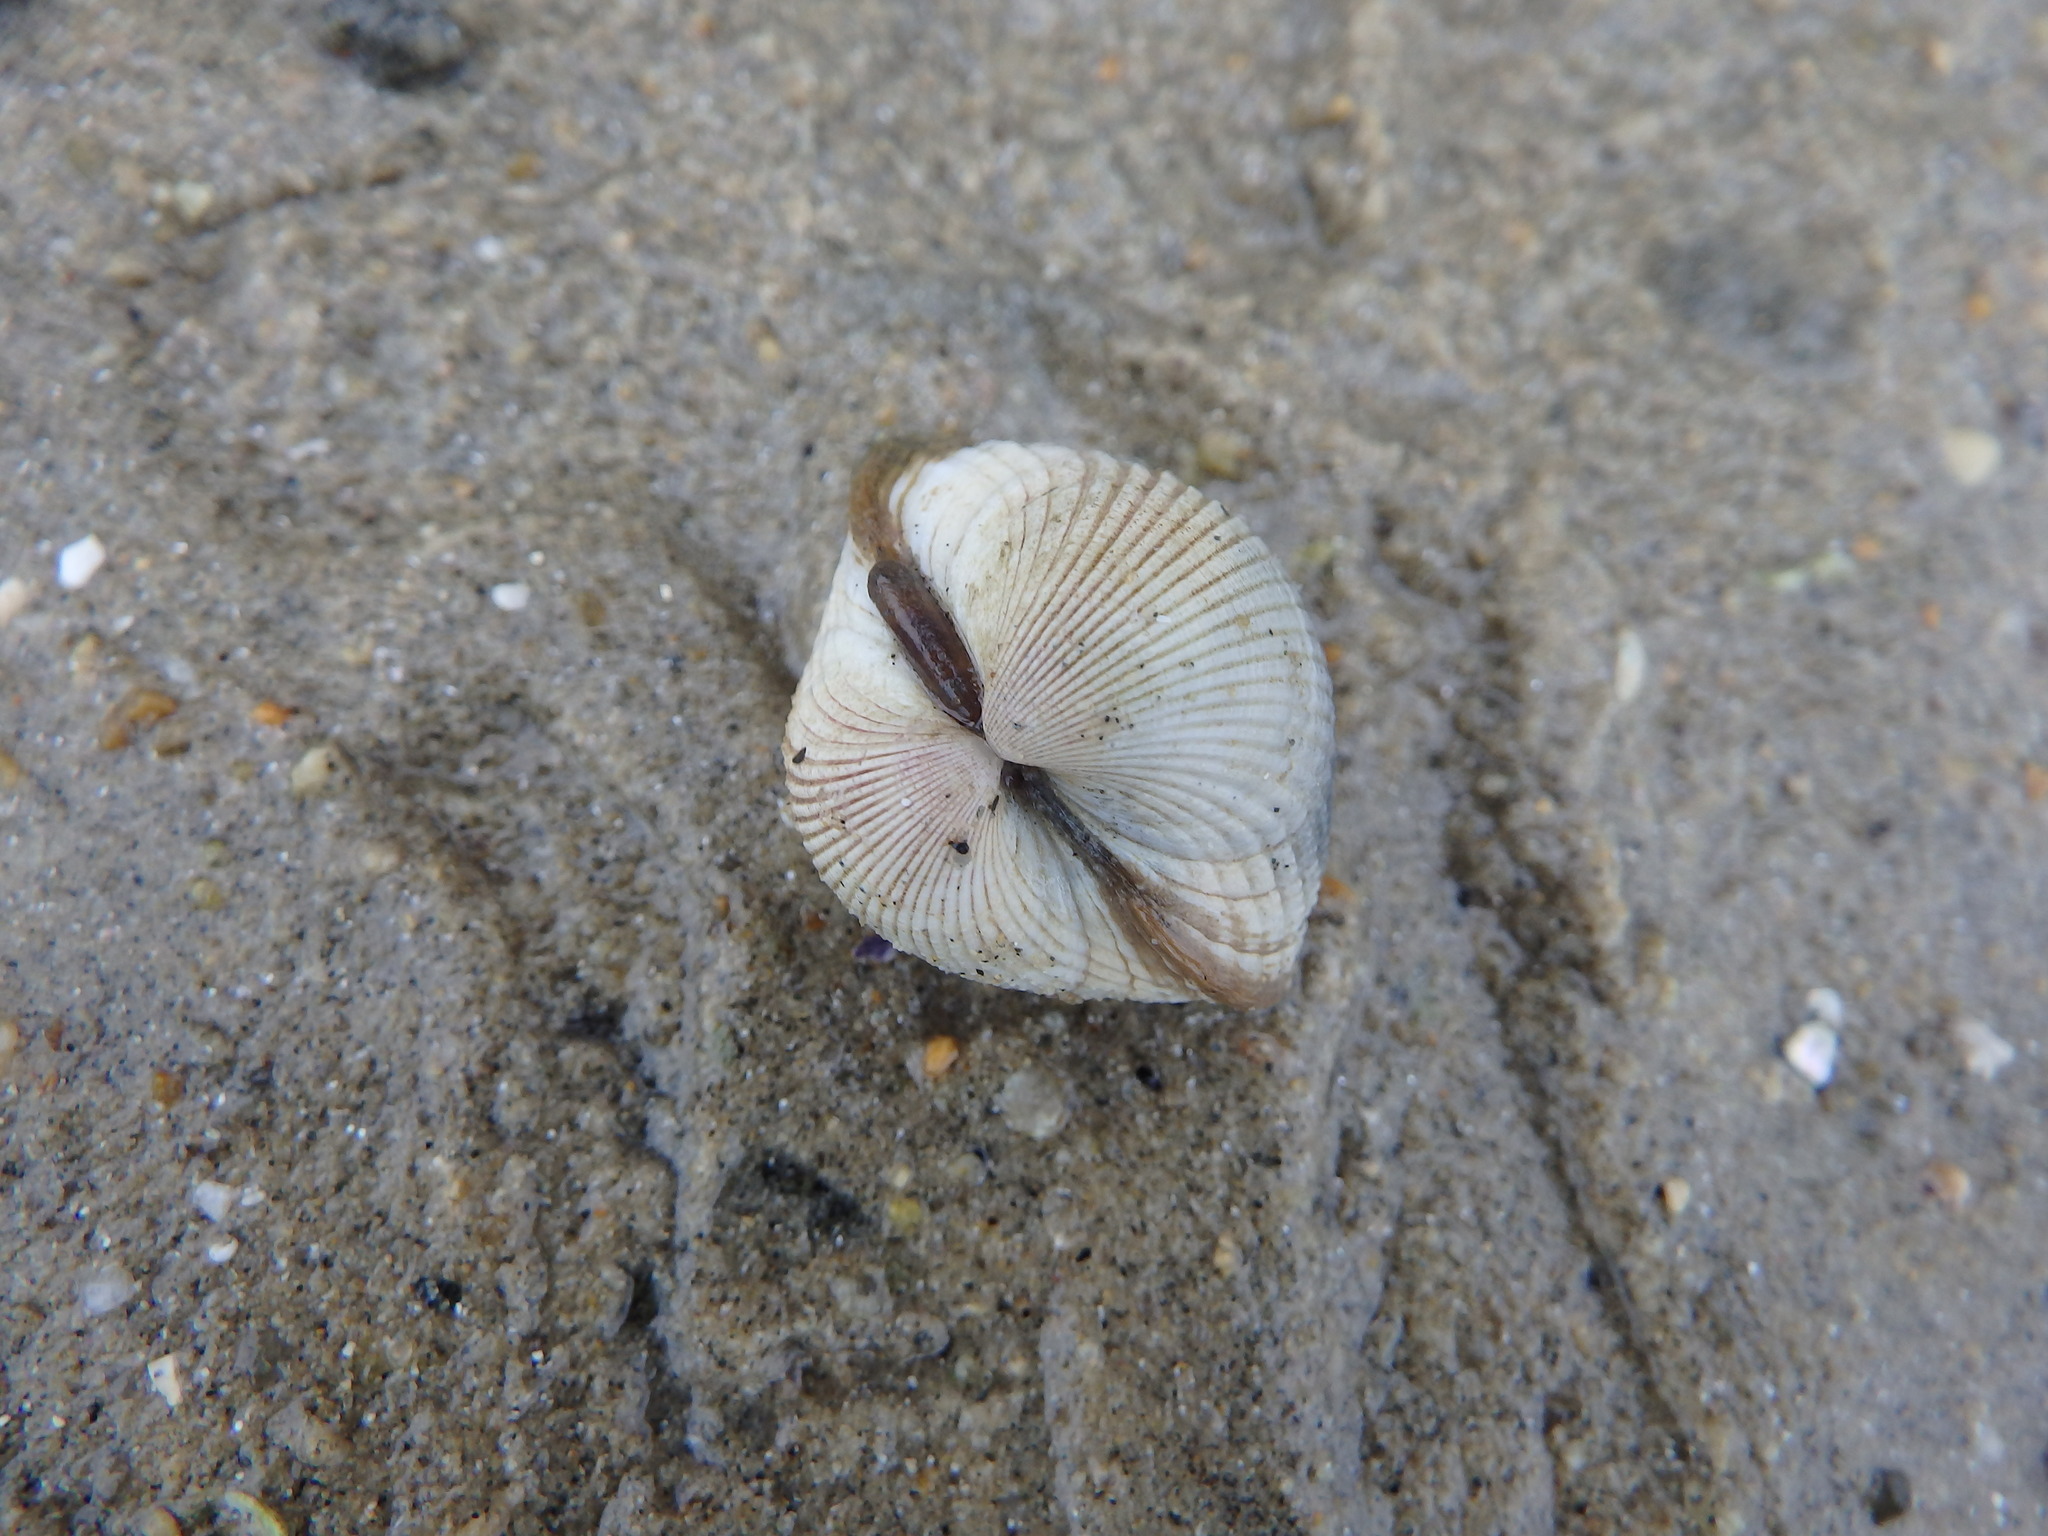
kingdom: Animalia
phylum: Mollusca
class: Bivalvia
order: Cardiida
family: Cardiidae
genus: Cerastoderma
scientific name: Cerastoderma edule
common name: Common cockle
